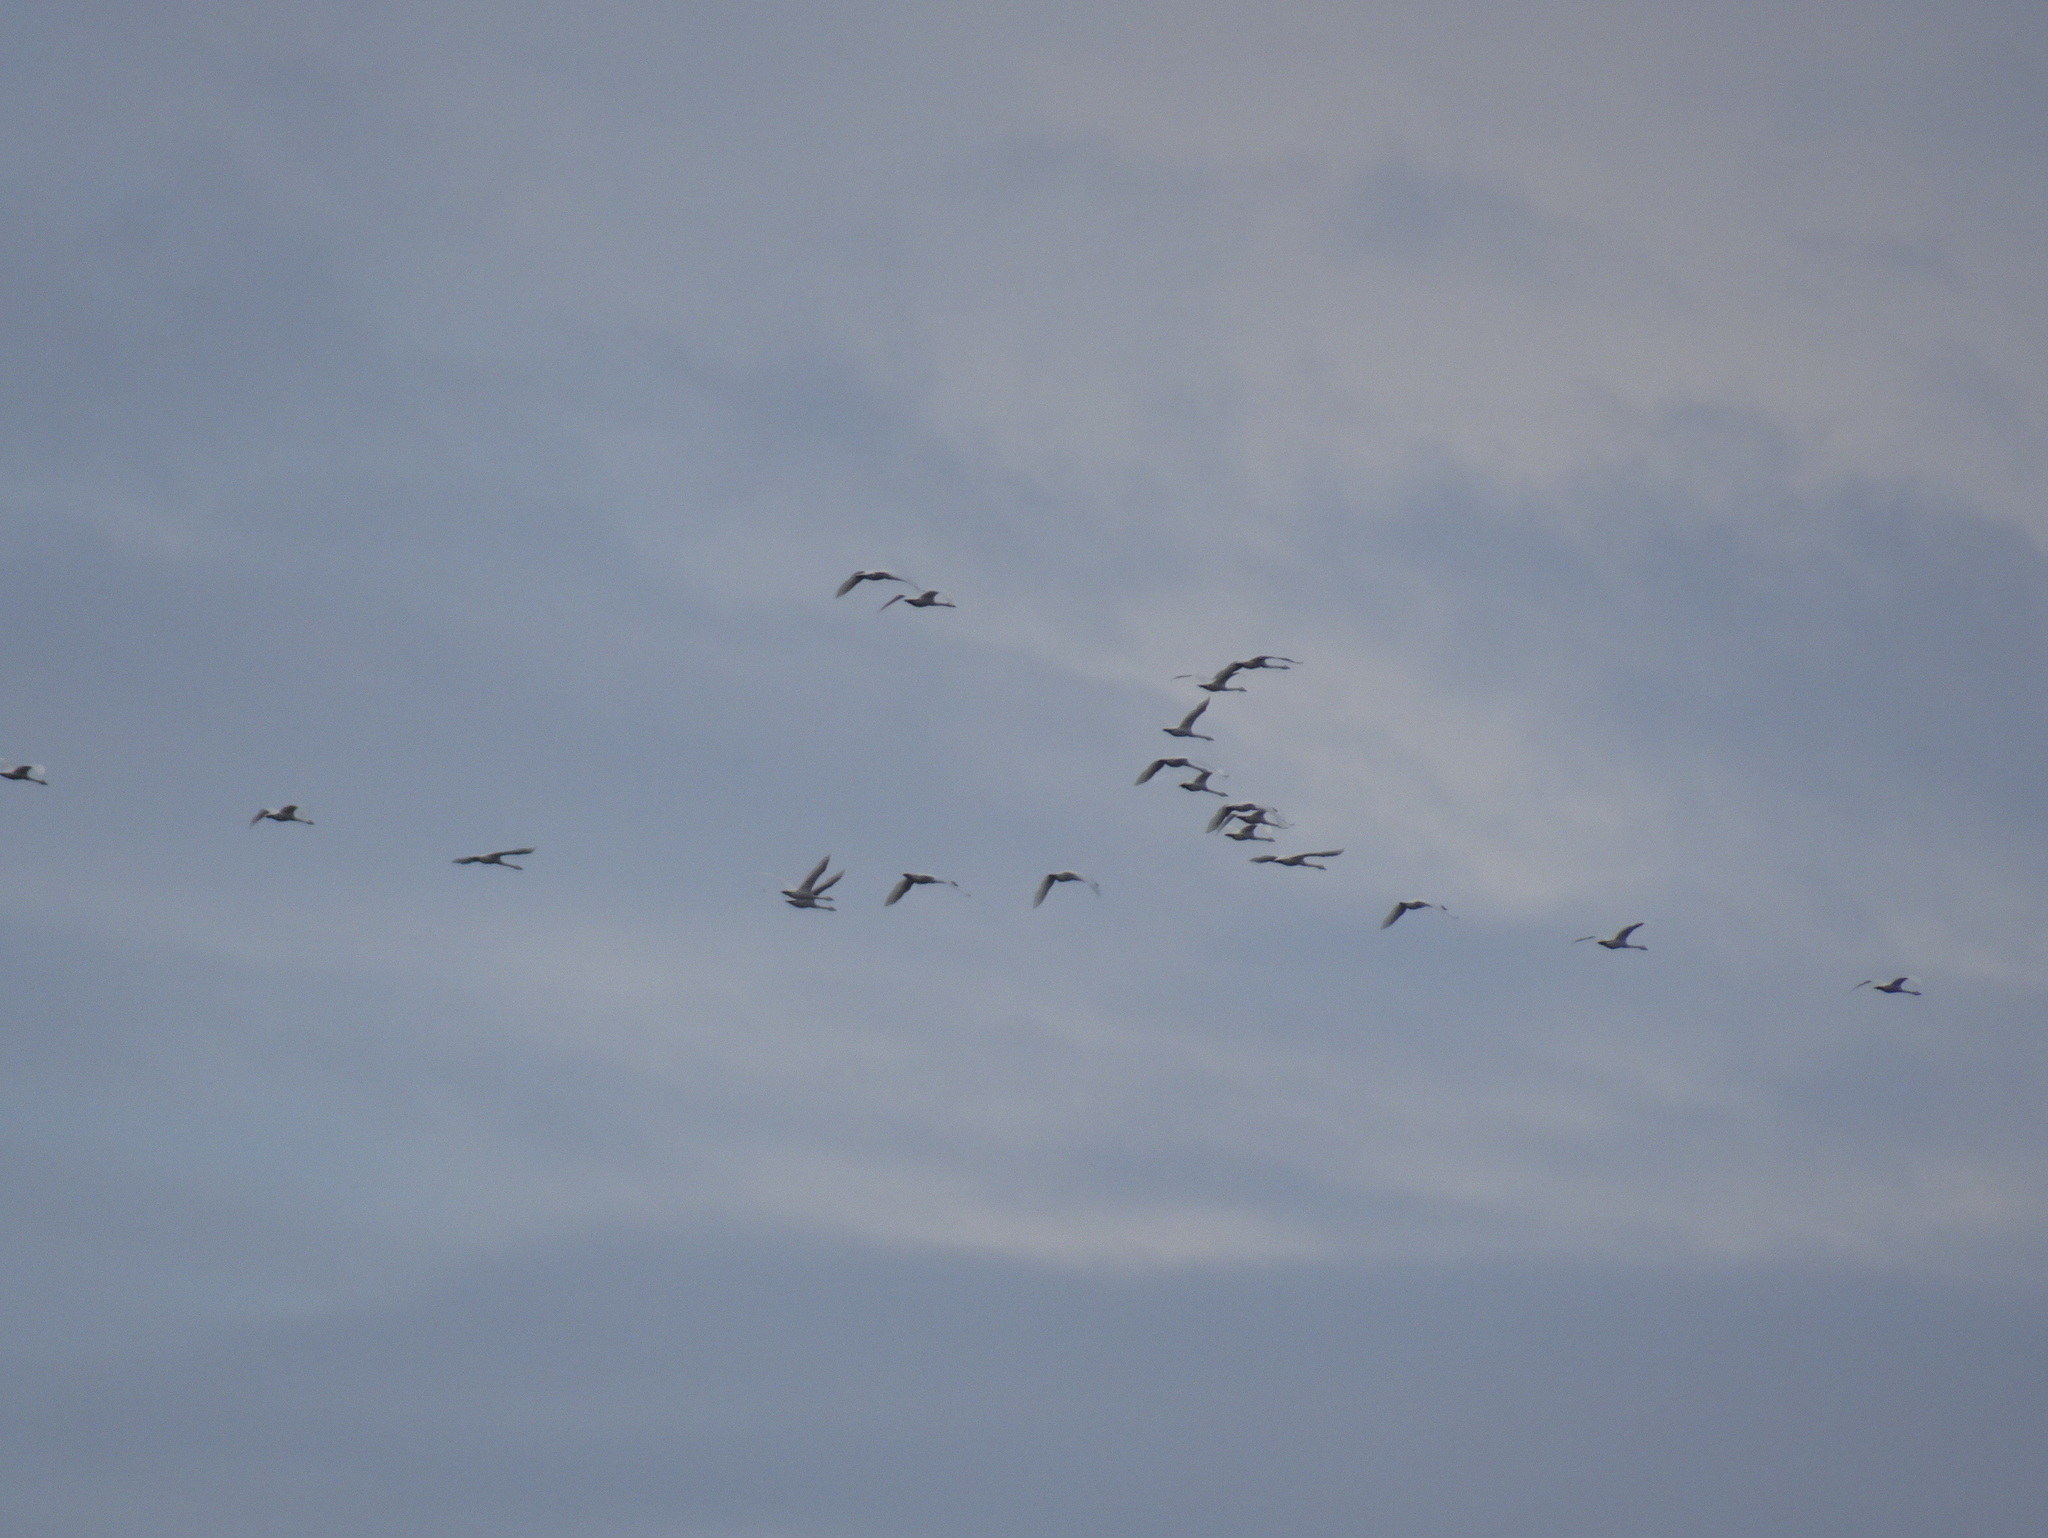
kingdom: Animalia
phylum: Chordata
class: Aves
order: Anseriformes
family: Anatidae
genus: Cygnus
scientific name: Cygnus columbianus
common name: Tundra swan
